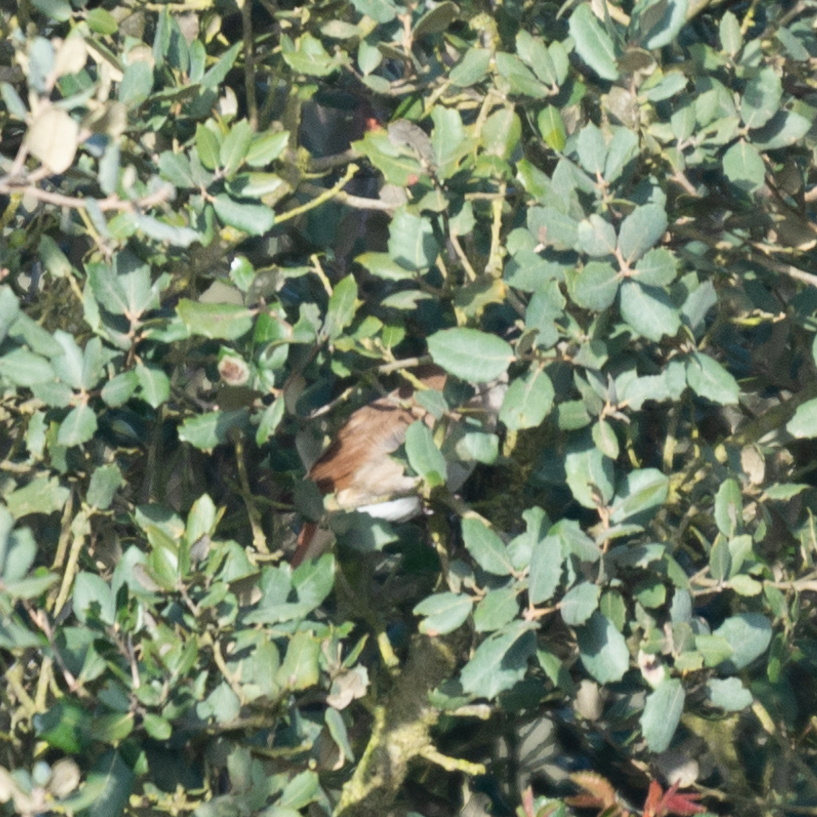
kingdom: Animalia
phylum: Chordata
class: Aves
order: Passeriformes
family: Muscicapidae
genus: Luscinia
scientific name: Luscinia megarhynchos
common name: Common nightingale
